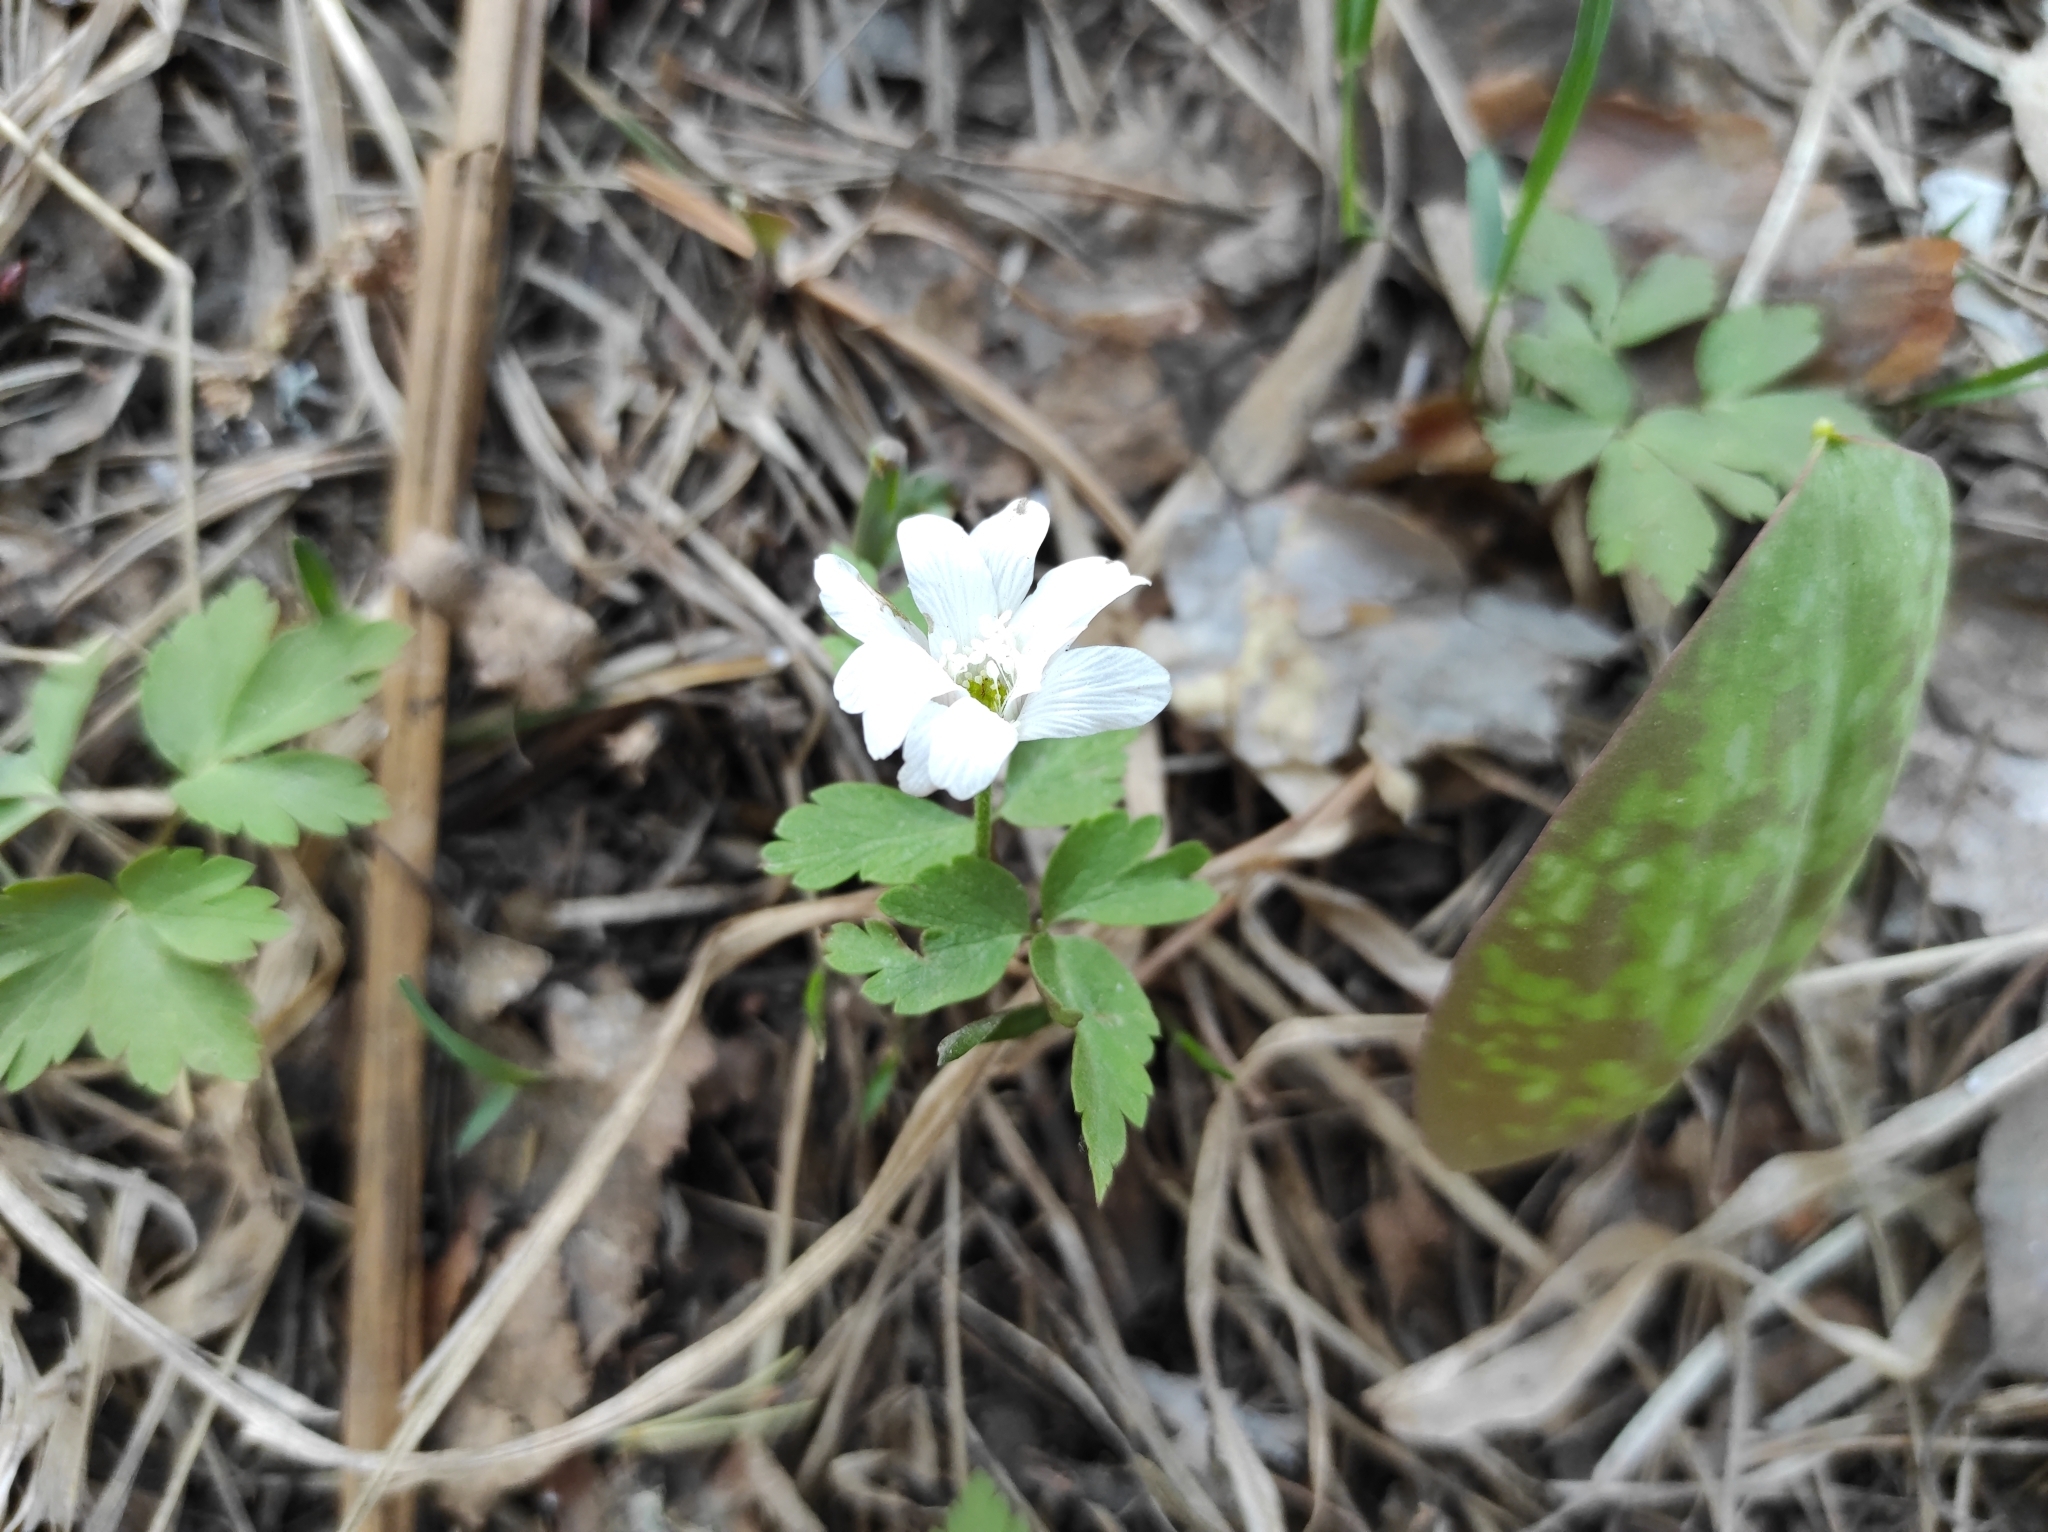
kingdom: Plantae
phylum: Tracheophyta
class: Magnoliopsida
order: Ranunculales
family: Ranunculaceae
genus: Anemone
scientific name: Anemone altaica
